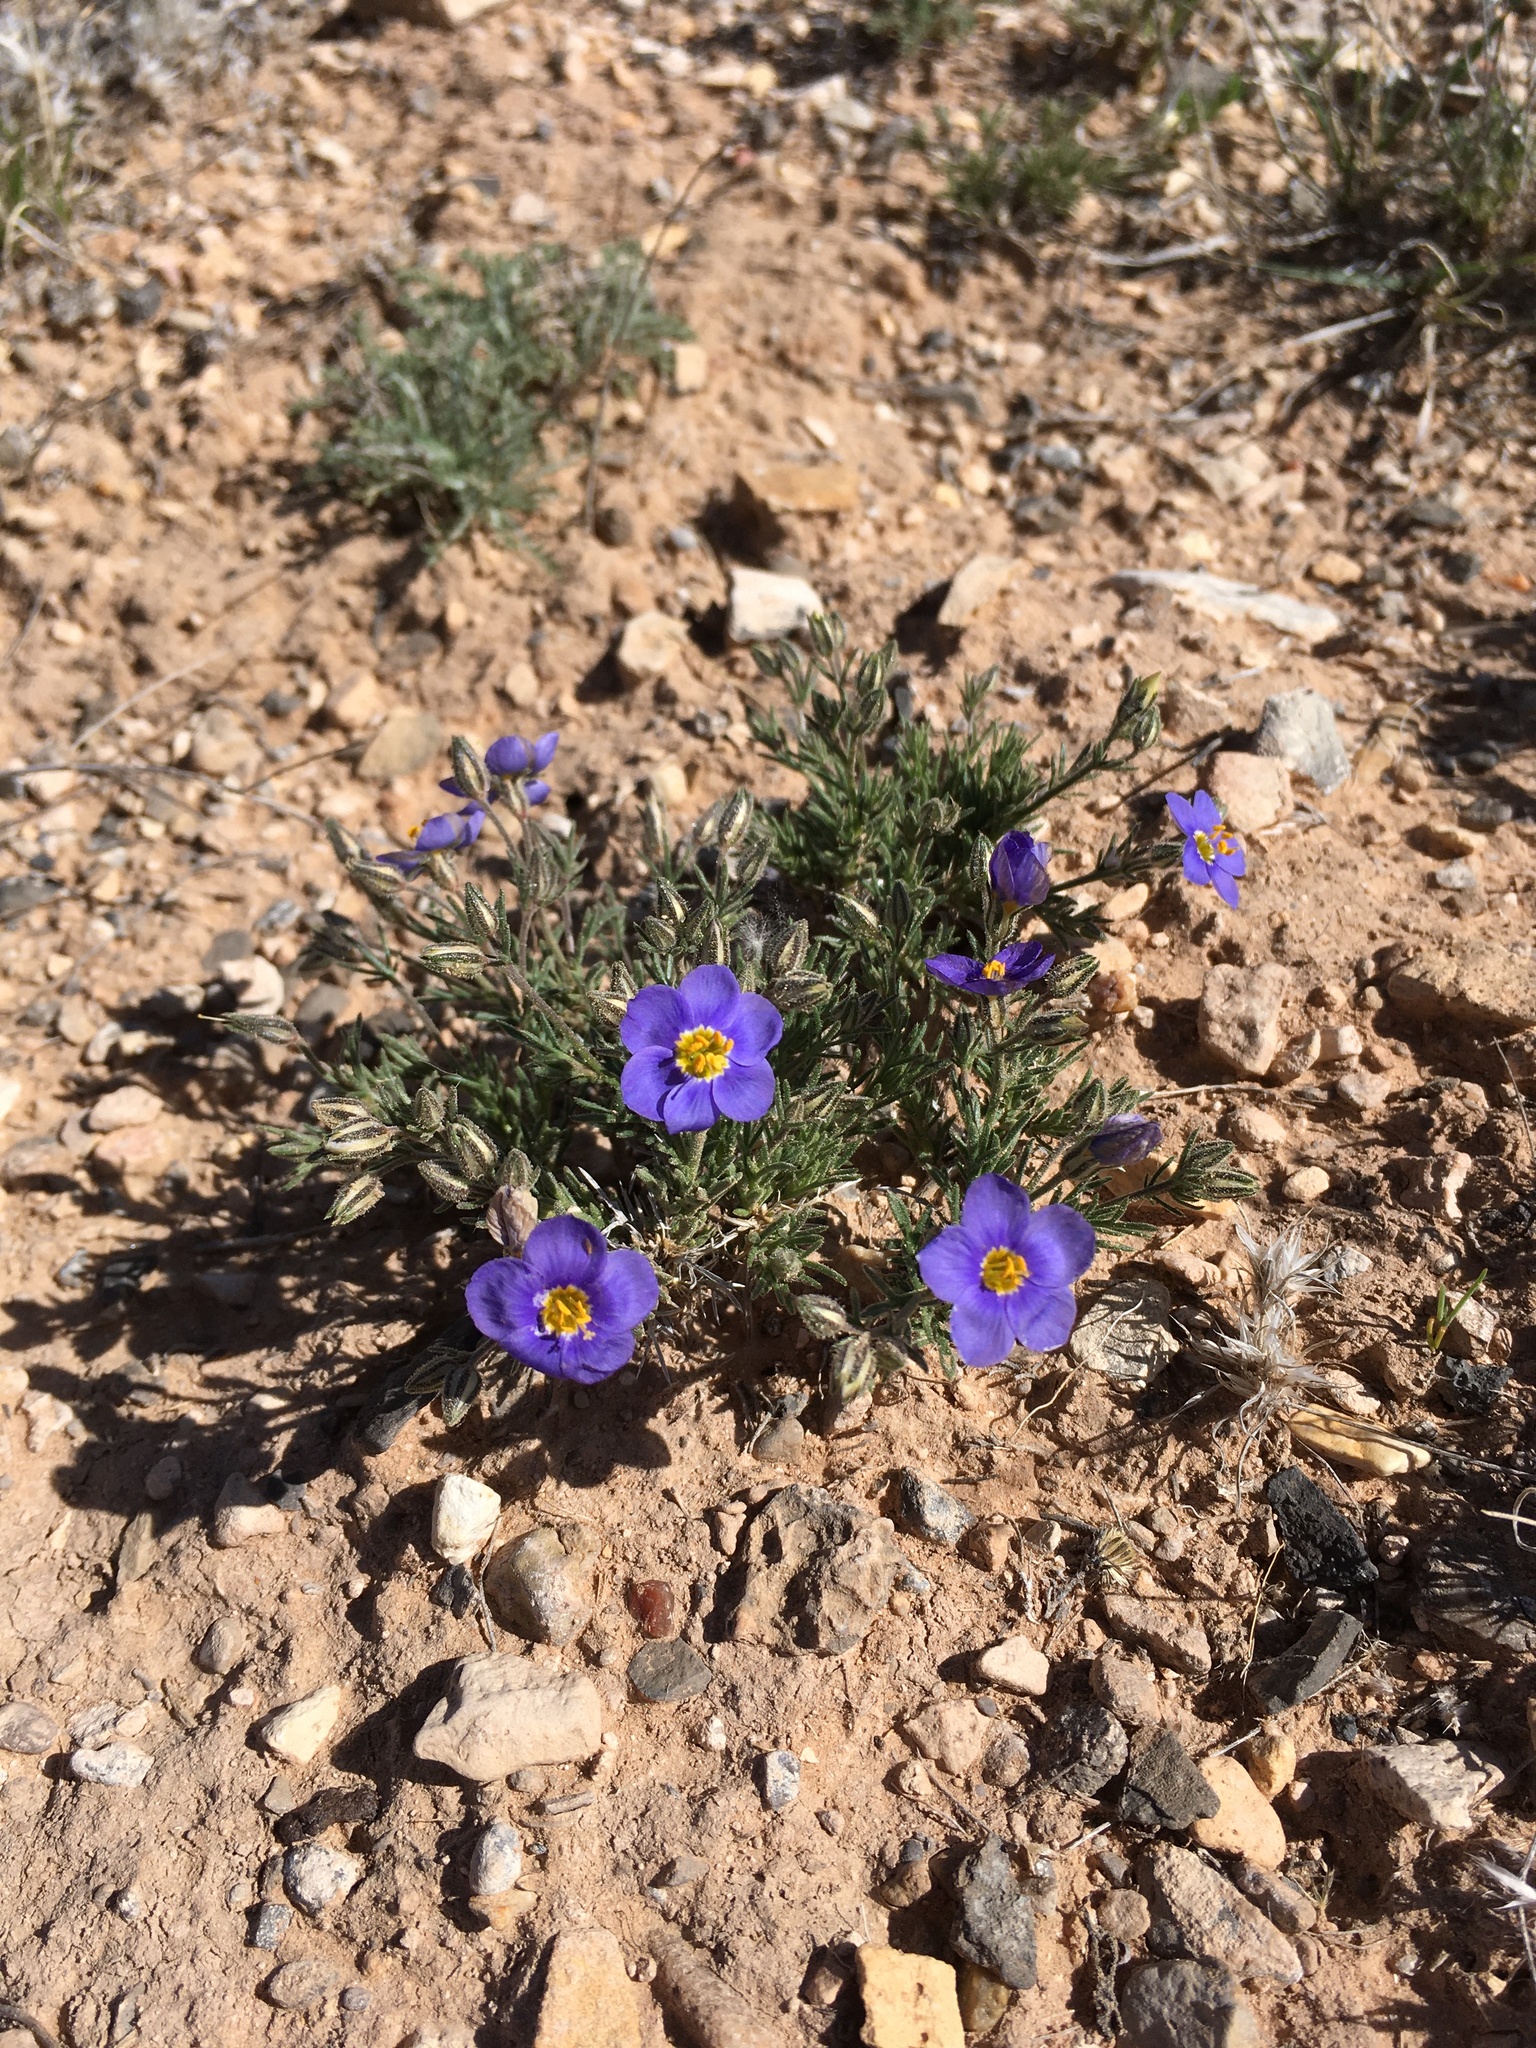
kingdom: Plantae
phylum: Tracheophyta
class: Magnoliopsida
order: Ericales
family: Polemoniaceae
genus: Giliastrum
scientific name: Giliastrum acerosum
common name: Bluebowls
